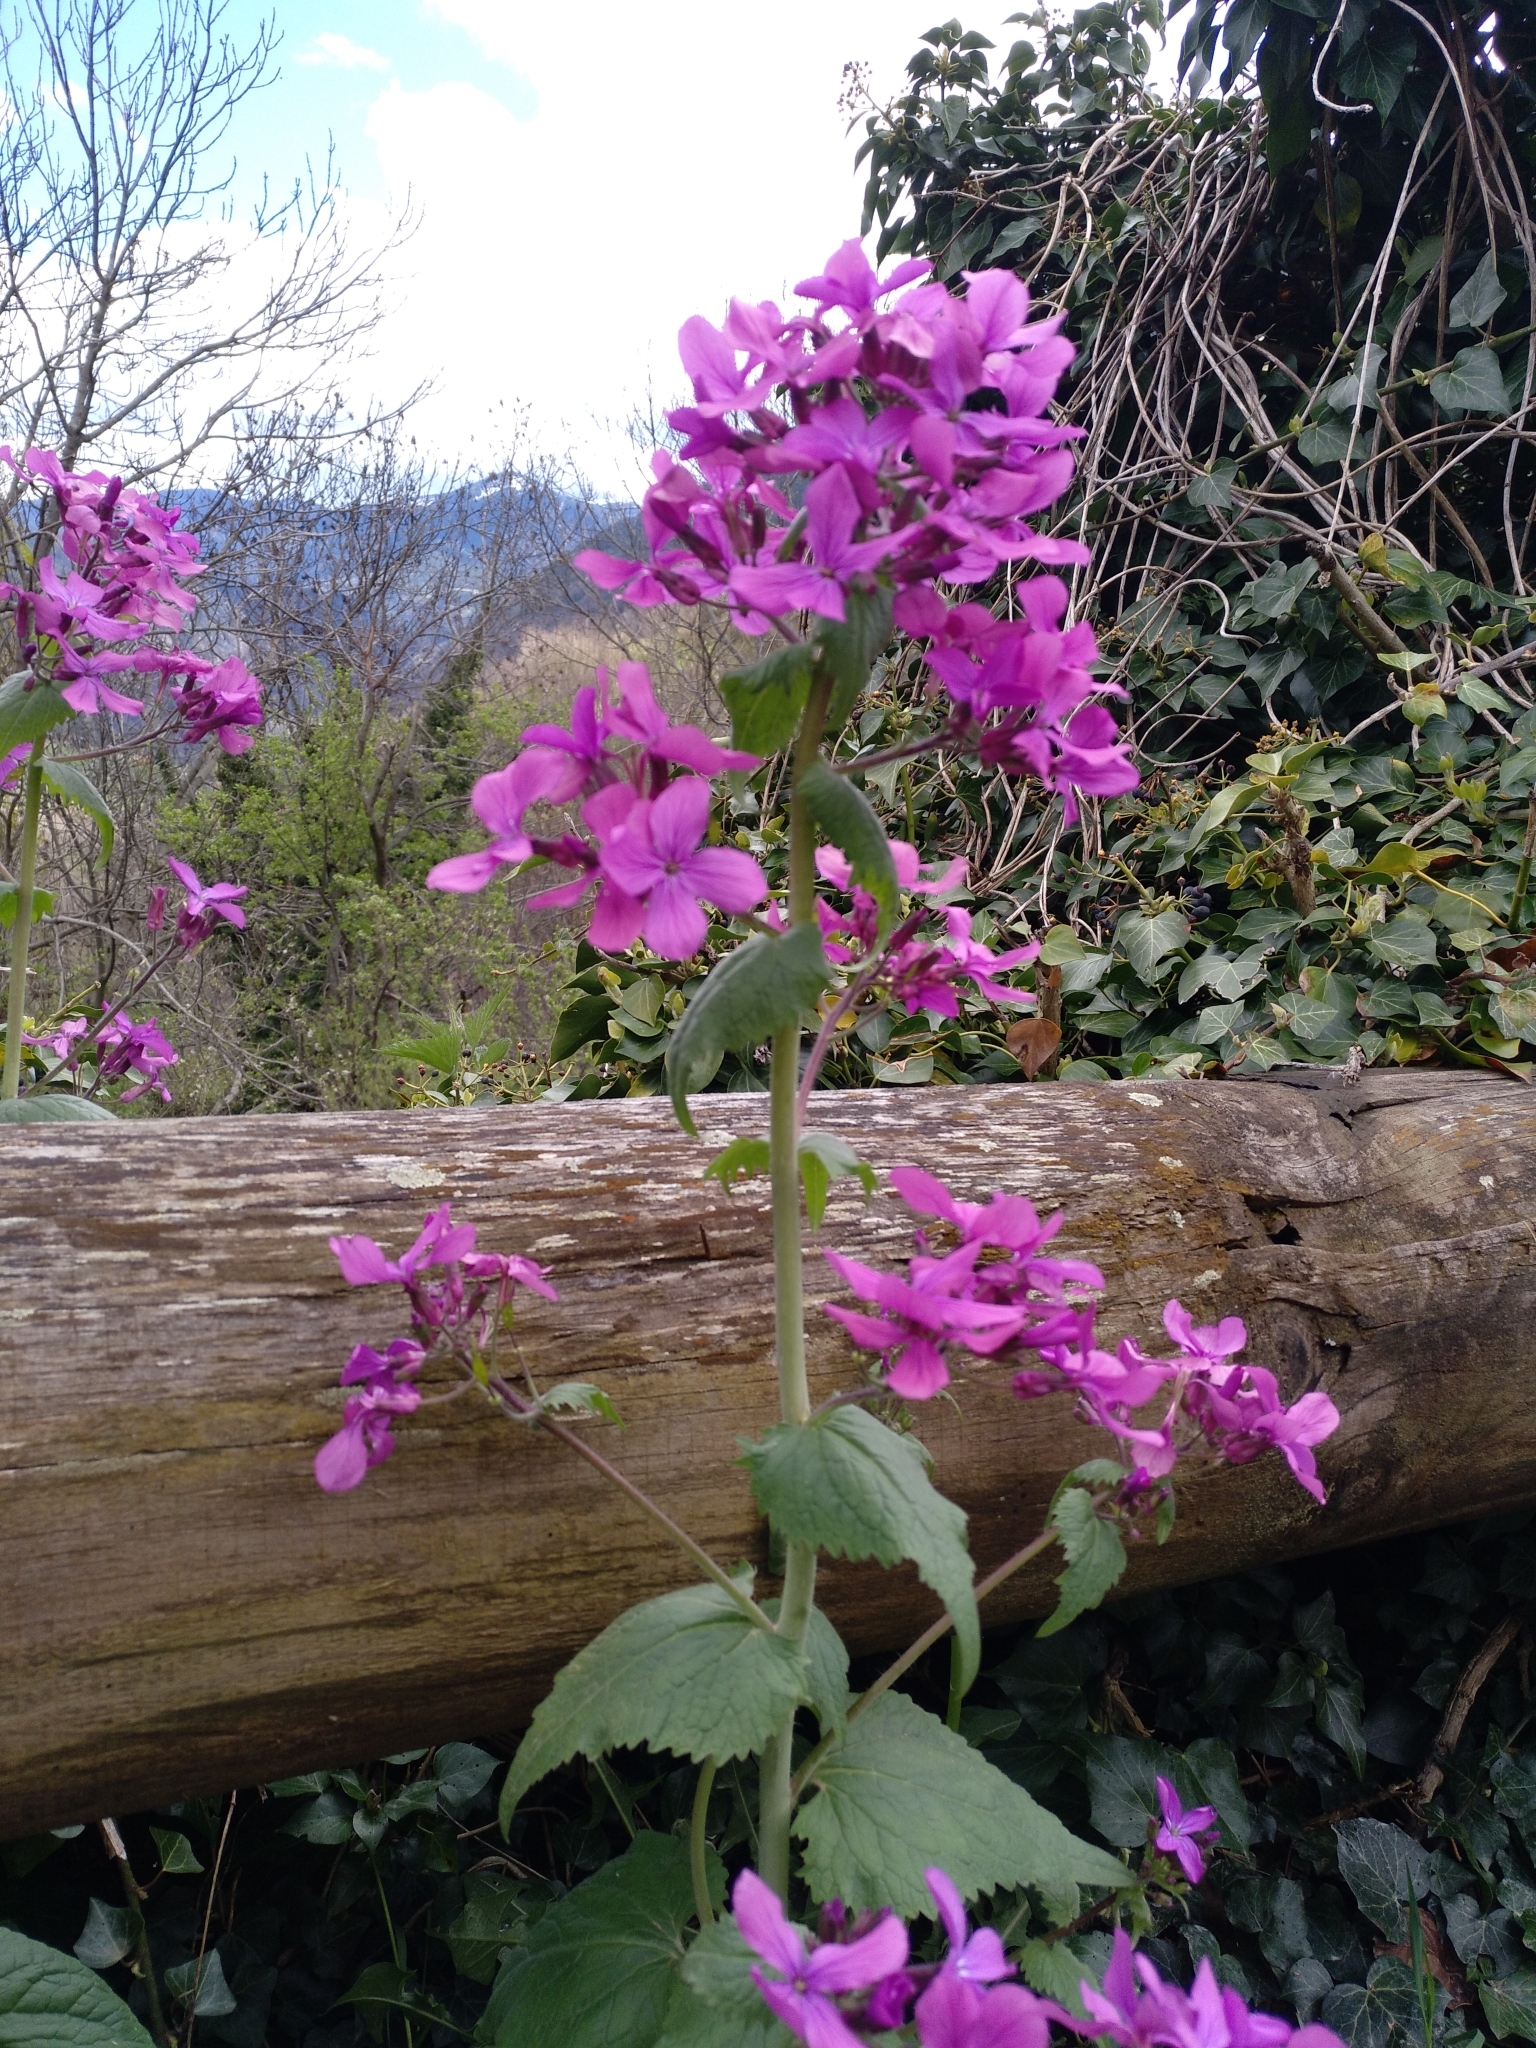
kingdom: Plantae
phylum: Tracheophyta
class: Magnoliopsida
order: Brassicales
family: Brassicaceae
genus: Lunaria
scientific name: Lunaria annua
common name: Honesty
